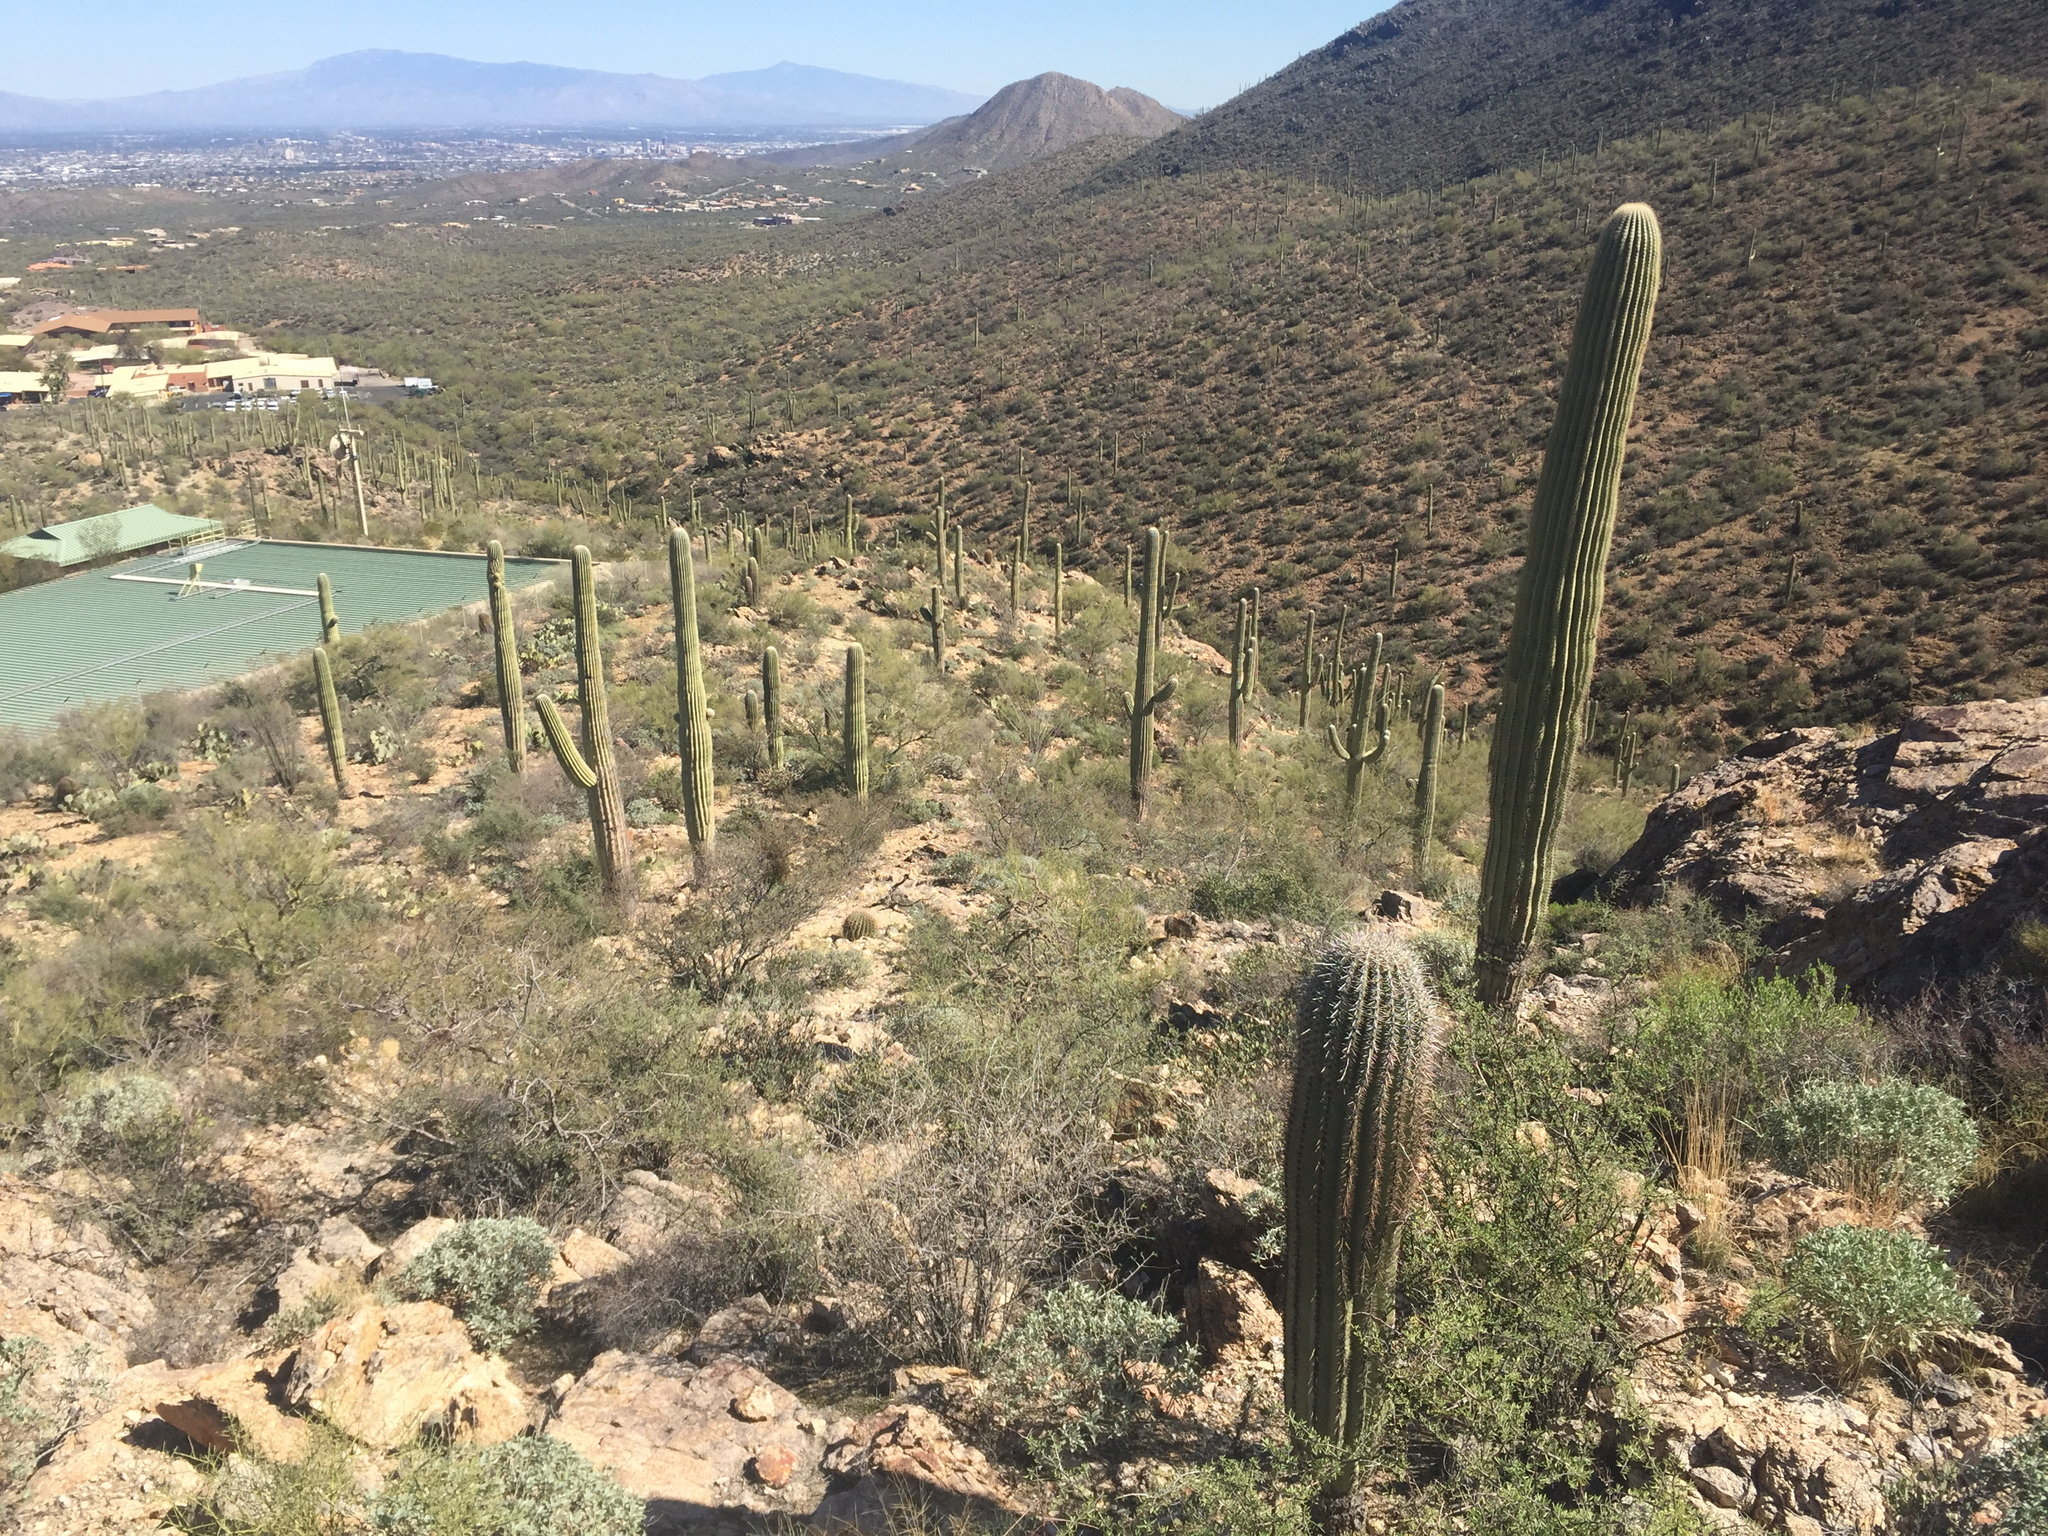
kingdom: Plantae
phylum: Tracheophyta
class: Magnoliopsida
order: Caryophyllales
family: Cactaceae
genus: Carnegiea
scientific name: Carnegiea gigantea
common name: Saguaro
